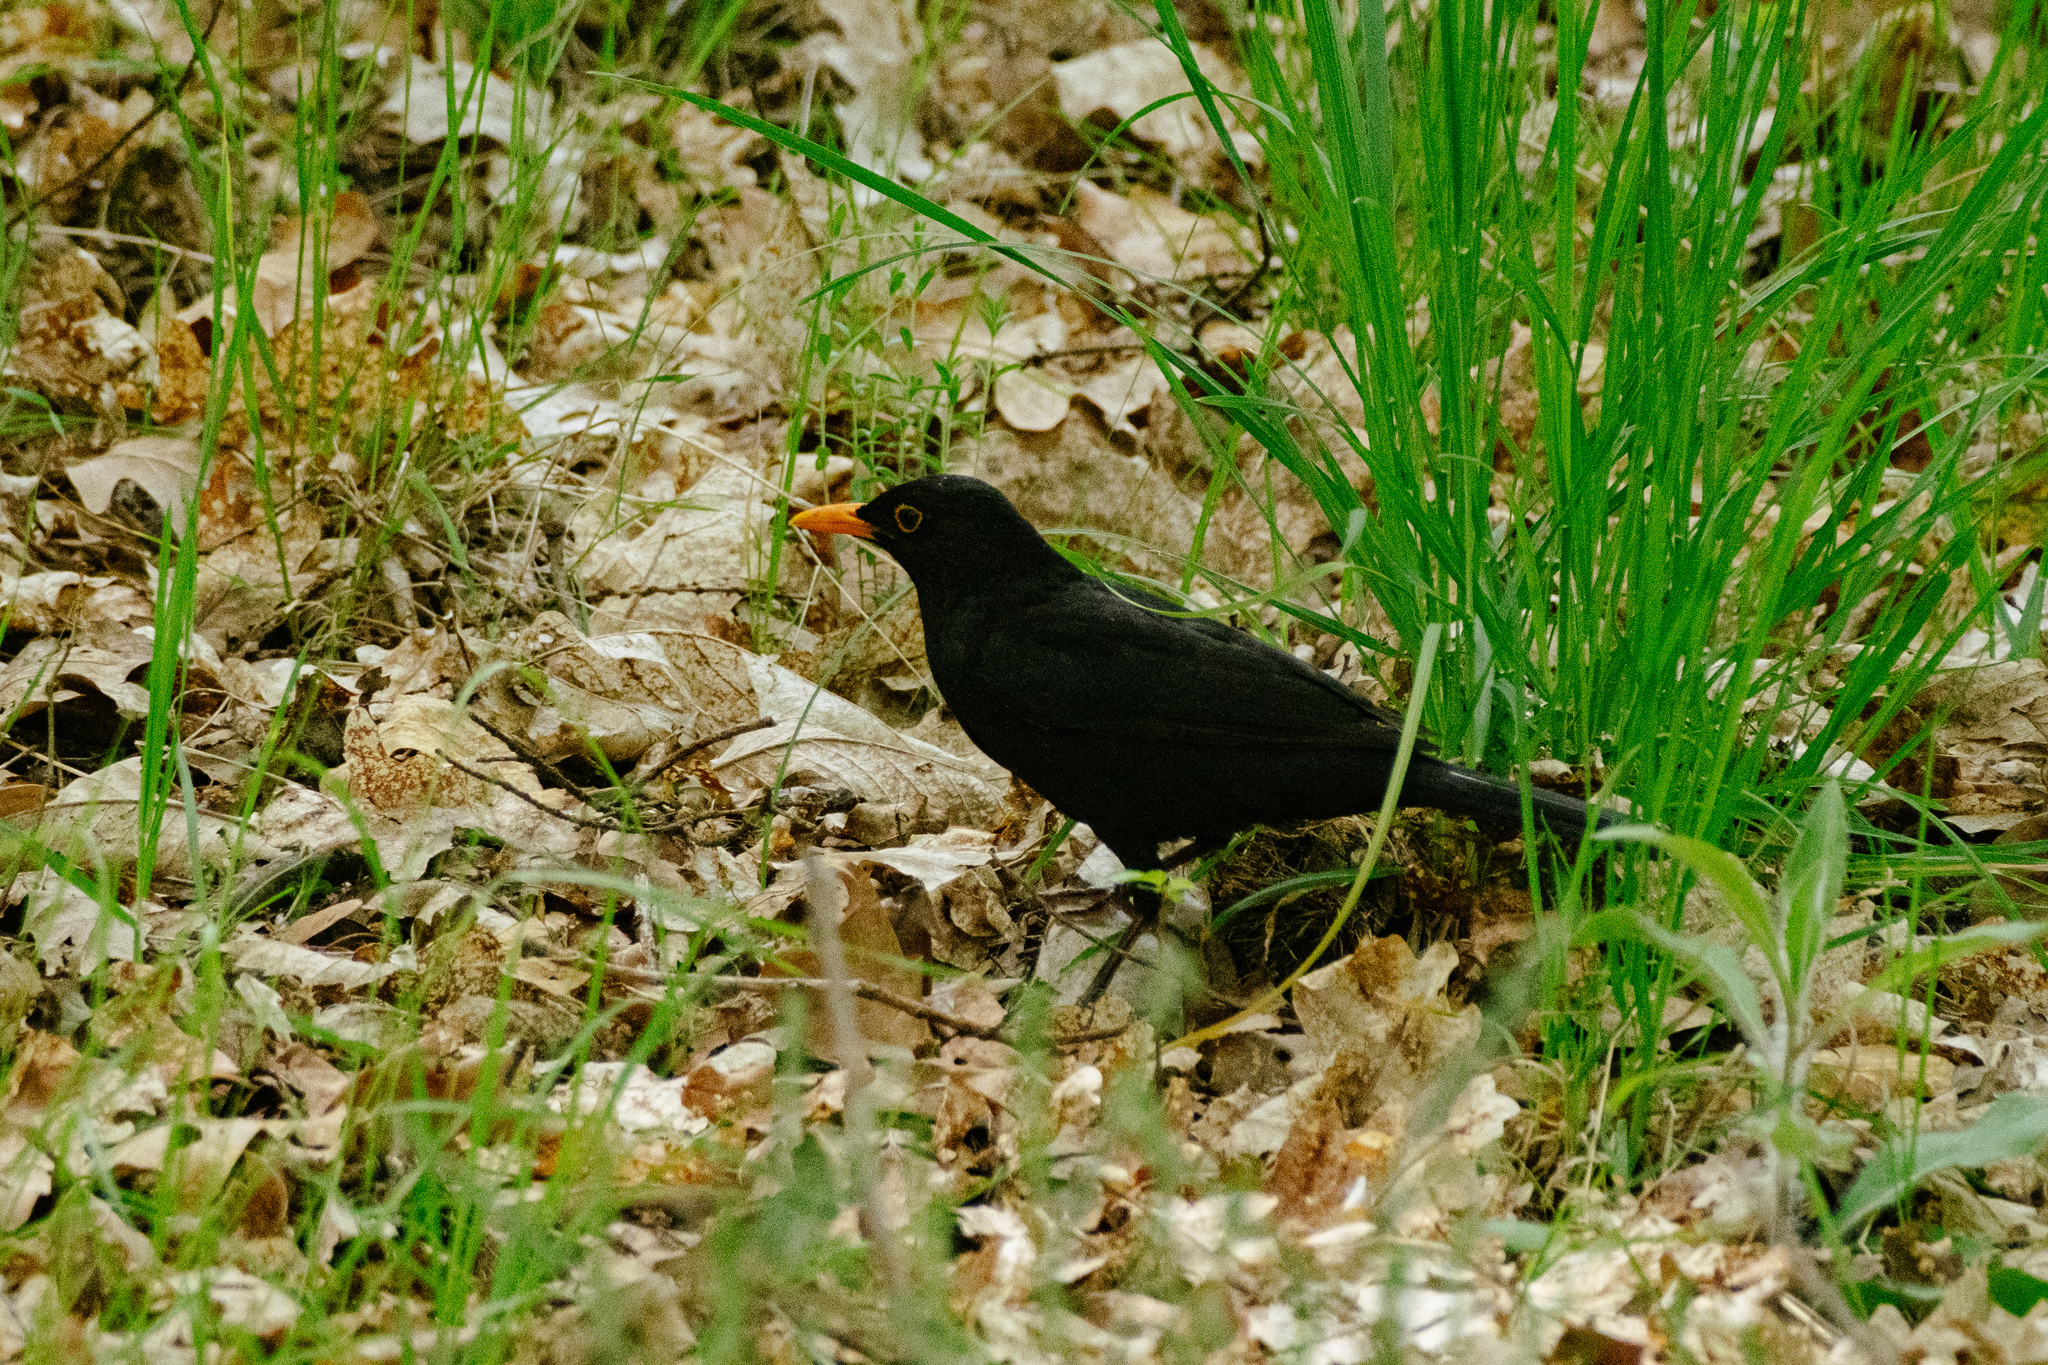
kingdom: Animalia
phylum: Chordata
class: Aves
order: Passeriformes
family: Turdidae
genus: Turdus
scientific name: Turdus merula
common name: Common blackbird
